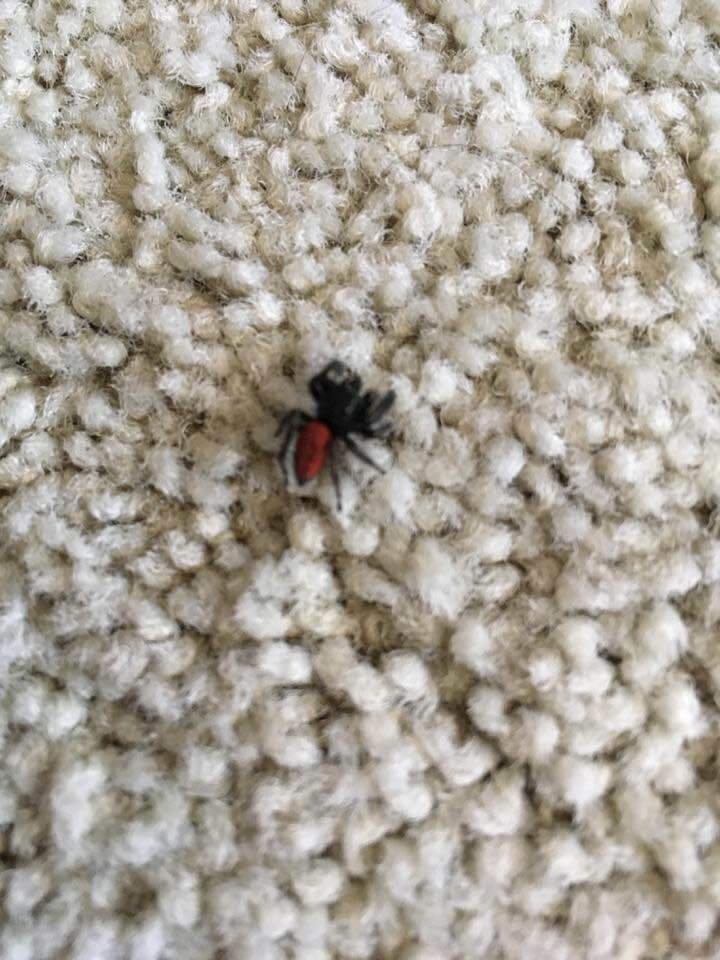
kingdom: Animalia
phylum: Arthropoda
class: Arachnida
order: Araneae
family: Salticidae
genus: Phidippus
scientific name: Phidippus johnsoni
